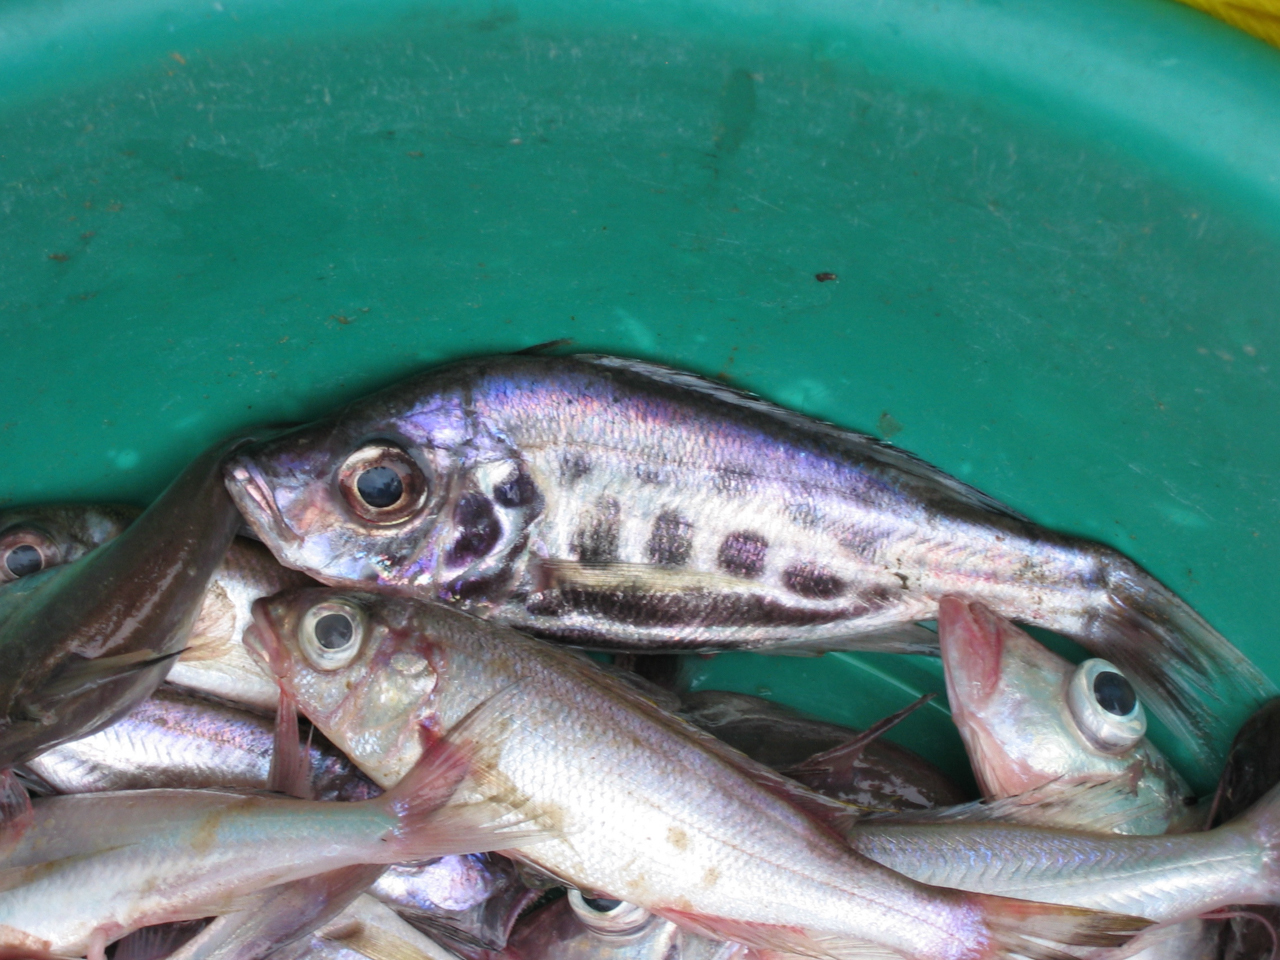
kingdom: Animalia
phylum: Chordata
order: Perciformes
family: Cichlidae
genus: Hemibates
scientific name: Hemibates stenosoma
